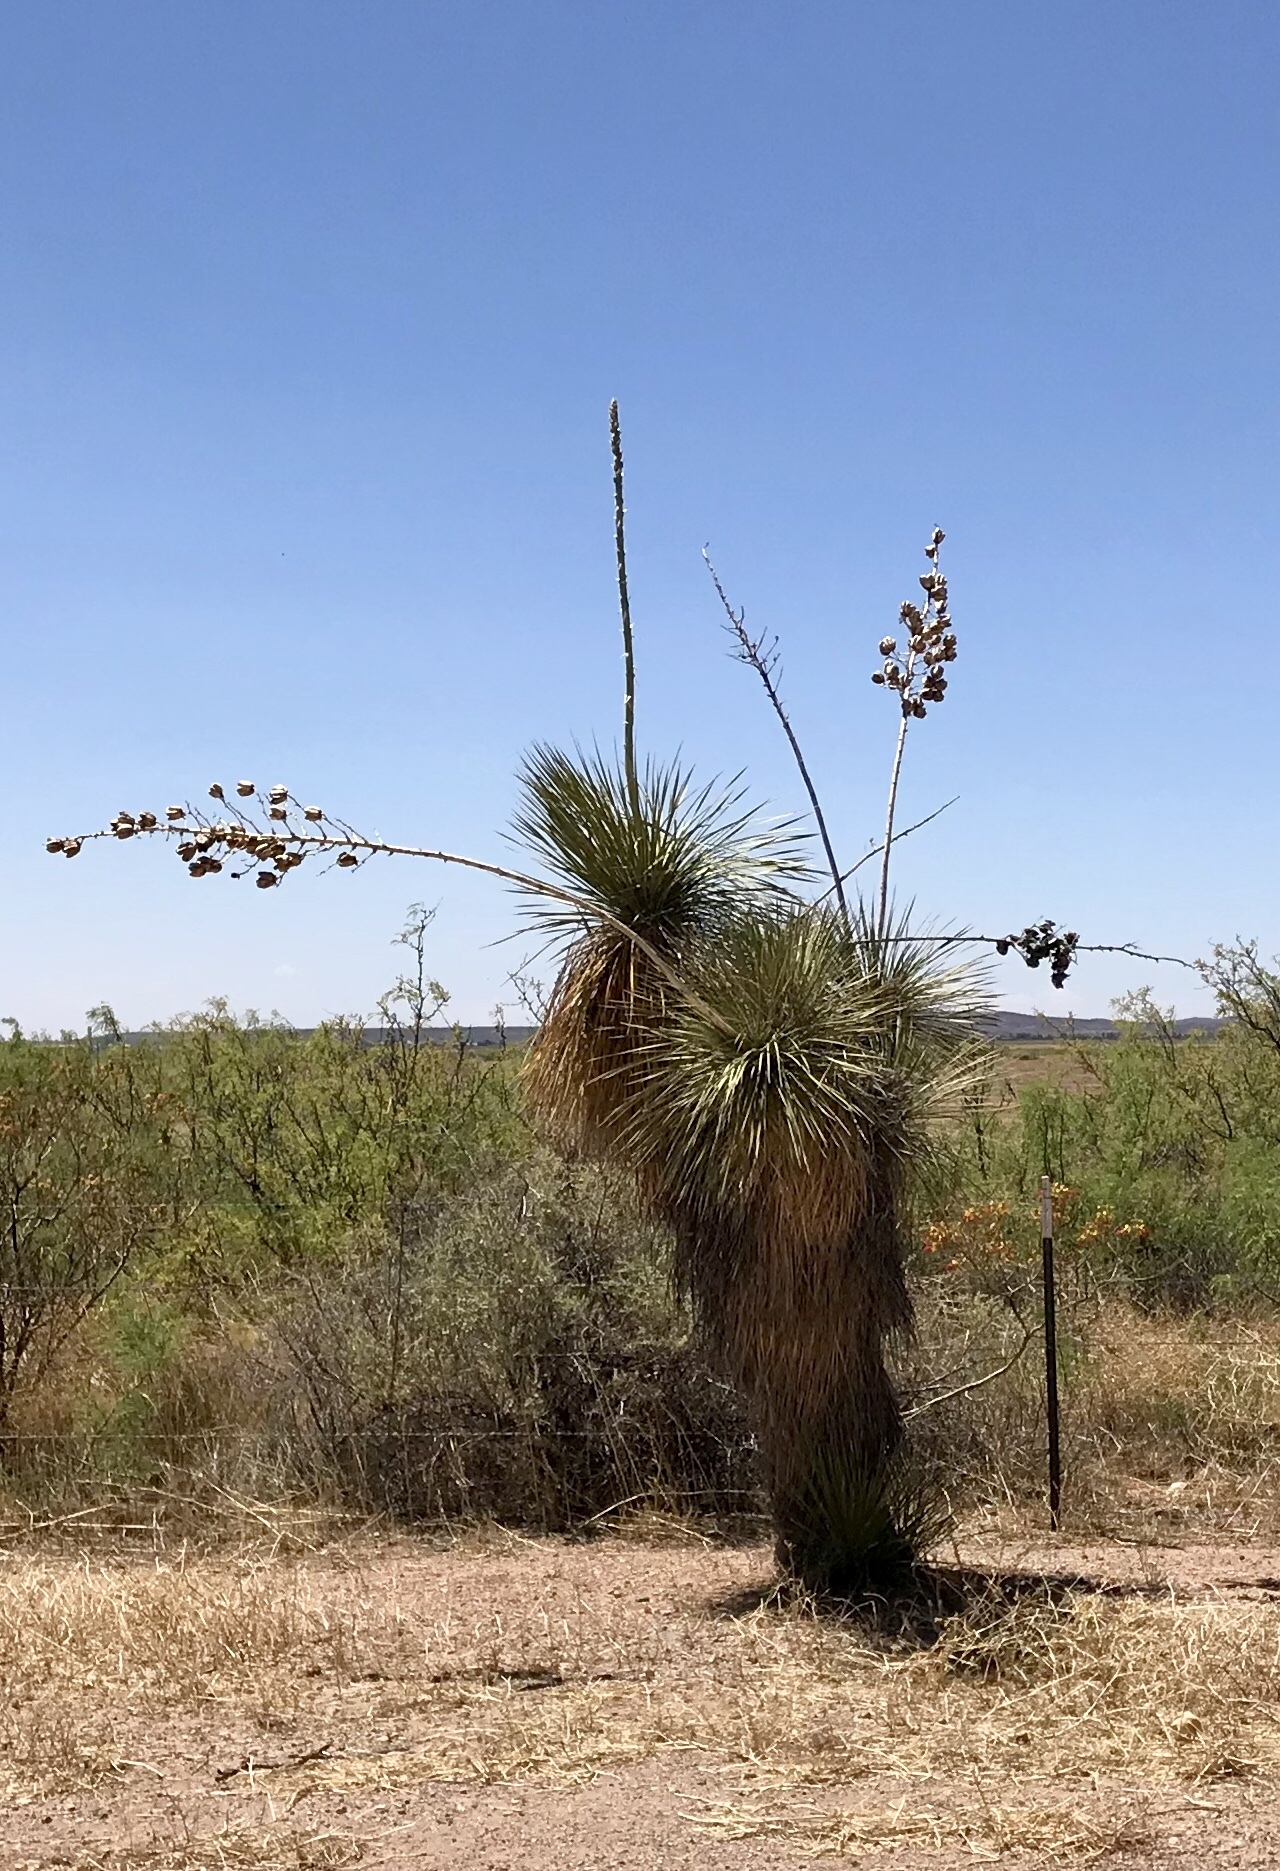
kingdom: Plantae
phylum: Tracheophyta
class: Liliopsida
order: Asparagales
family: Asparagaceae
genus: Yucca
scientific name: Yucca elata
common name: Palmella
